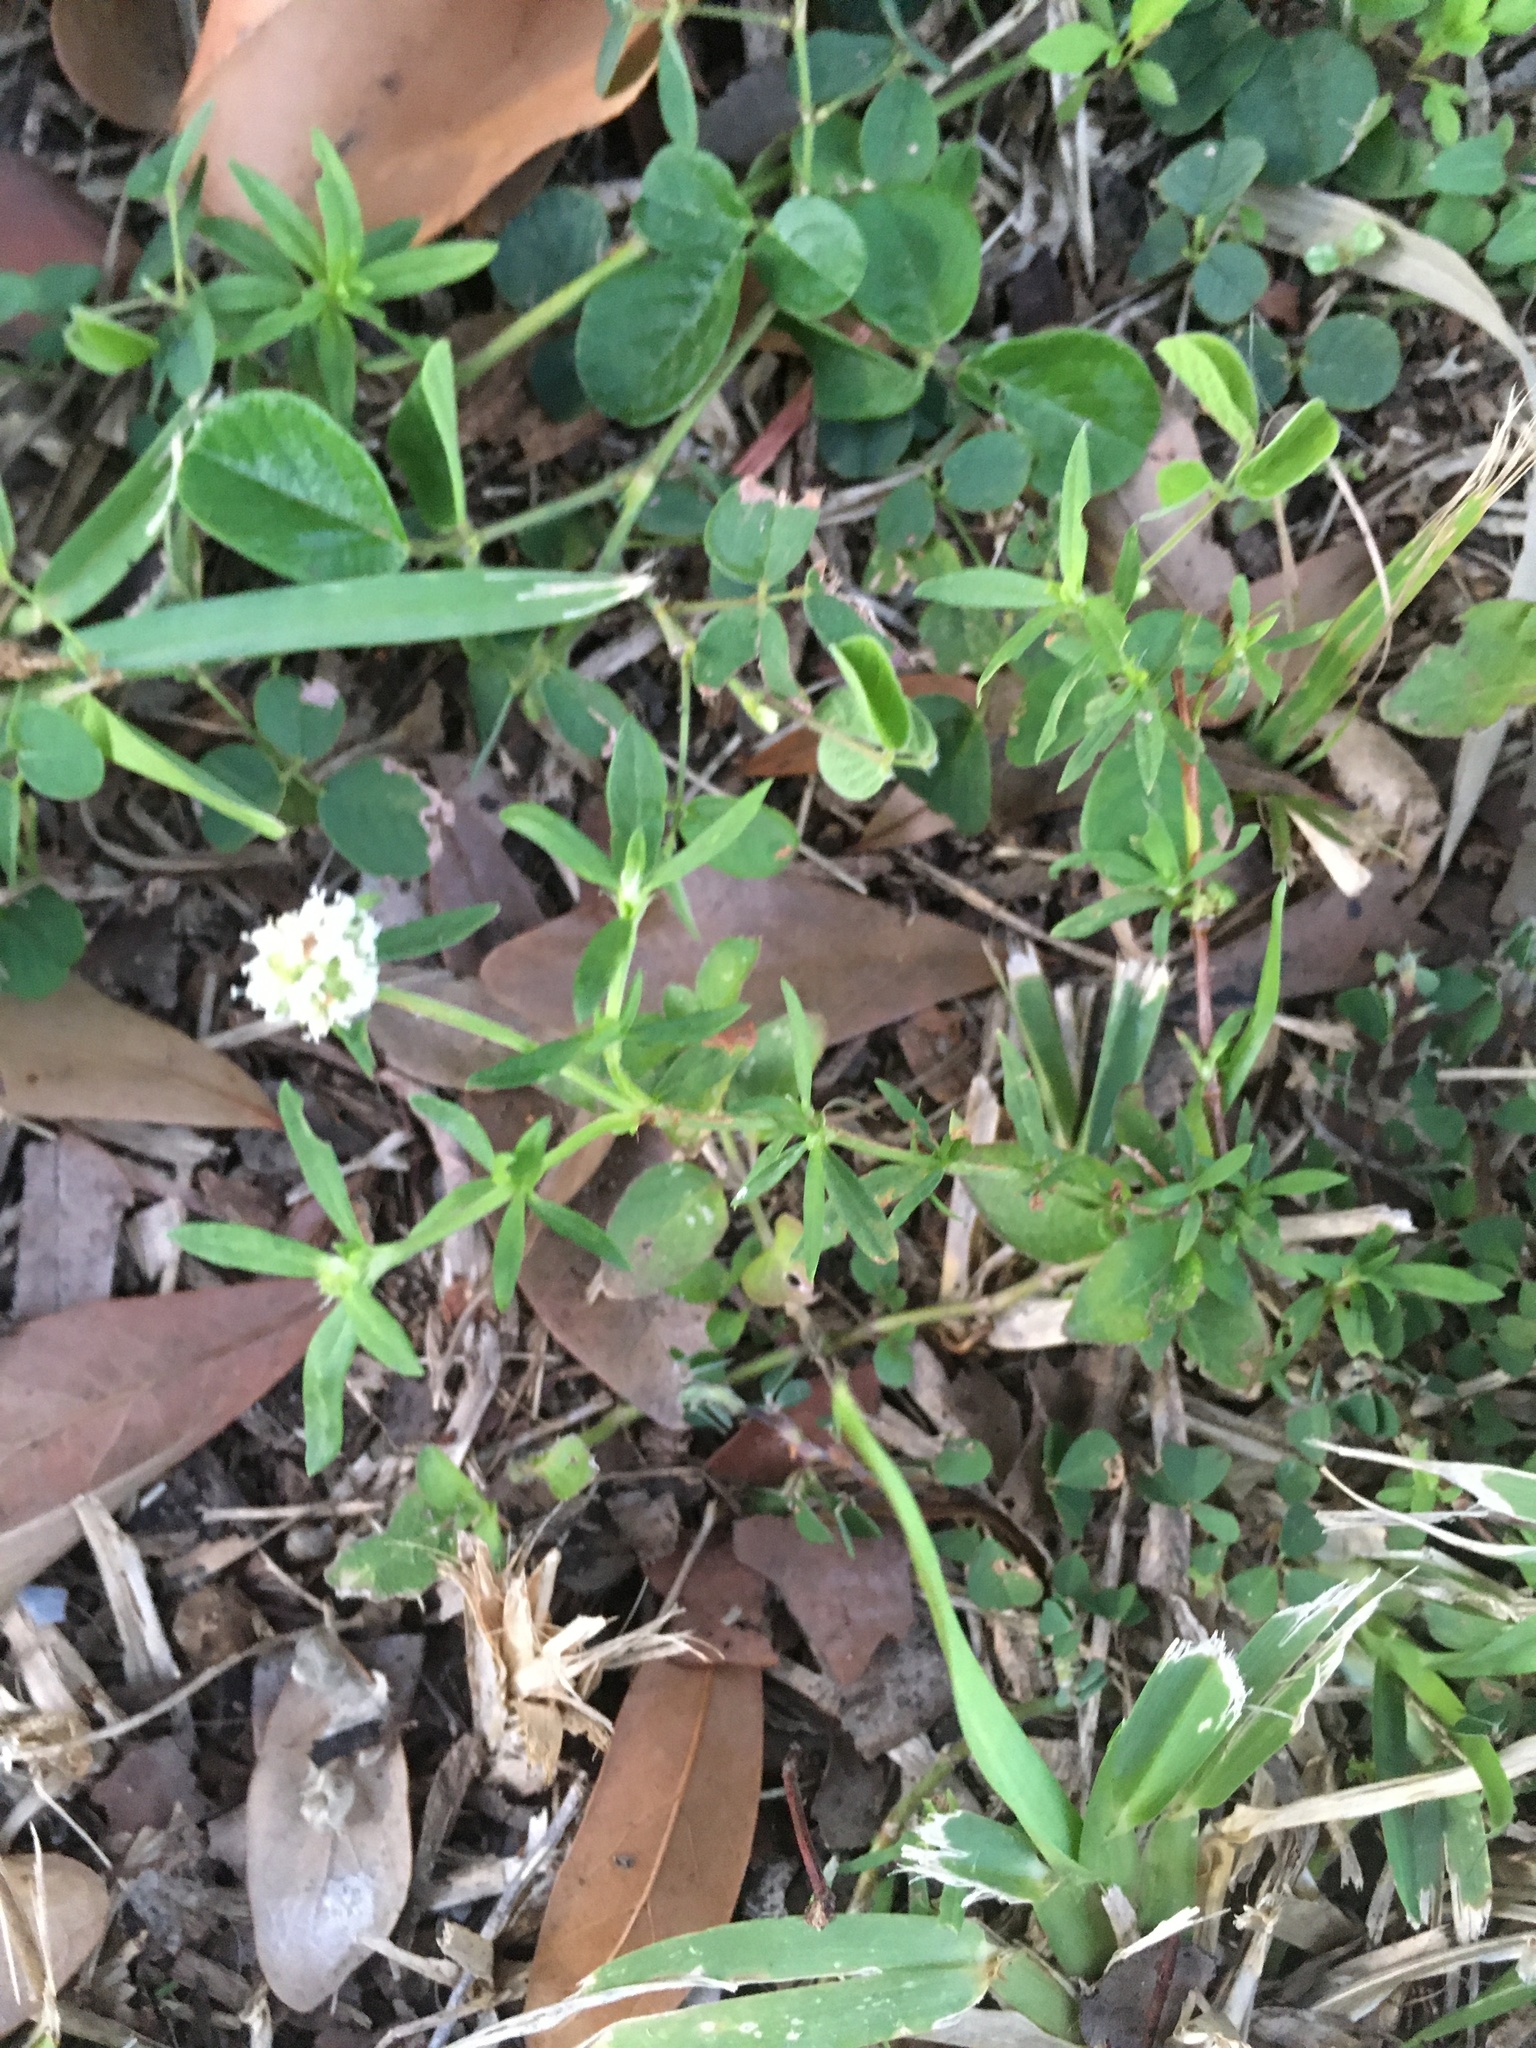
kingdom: Plantae
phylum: Tracheophyta
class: Magnoliopsida
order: Gentianales
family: Rubiaceae
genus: Spermacoce
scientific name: Spermacoce verticillata
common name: Shrubby false buttonweed
